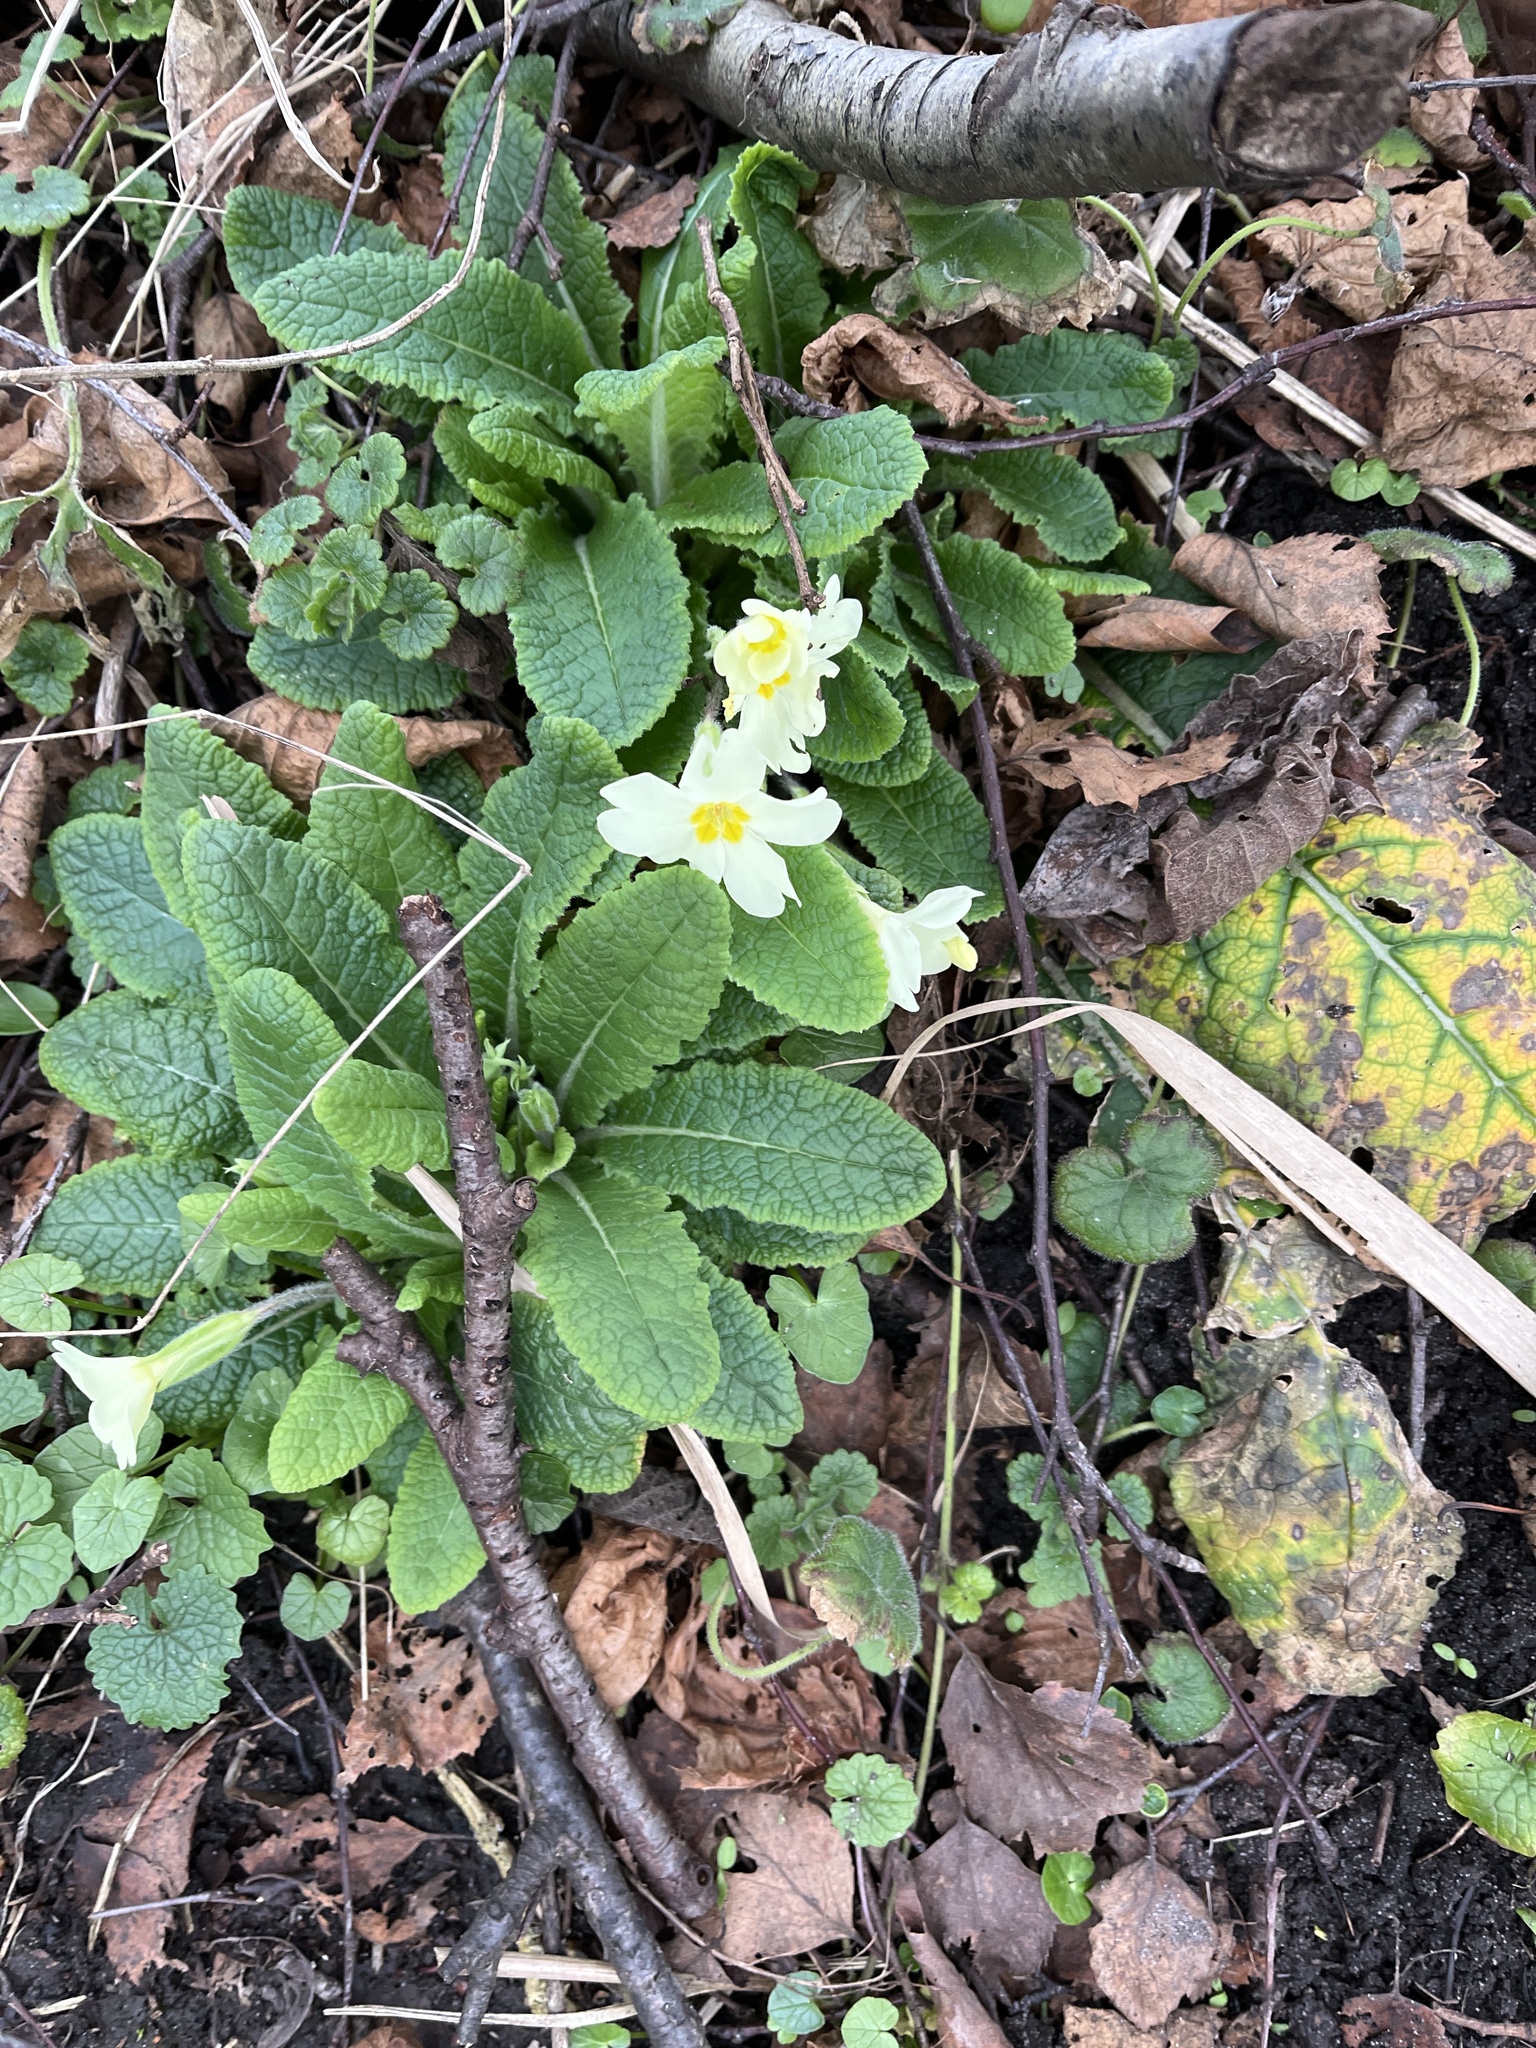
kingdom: Plantae
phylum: Tracheophyta
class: Magnoliopsida
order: Ericales
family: Primulaceae
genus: Primula
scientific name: Primula vulgaris
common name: Primrose
